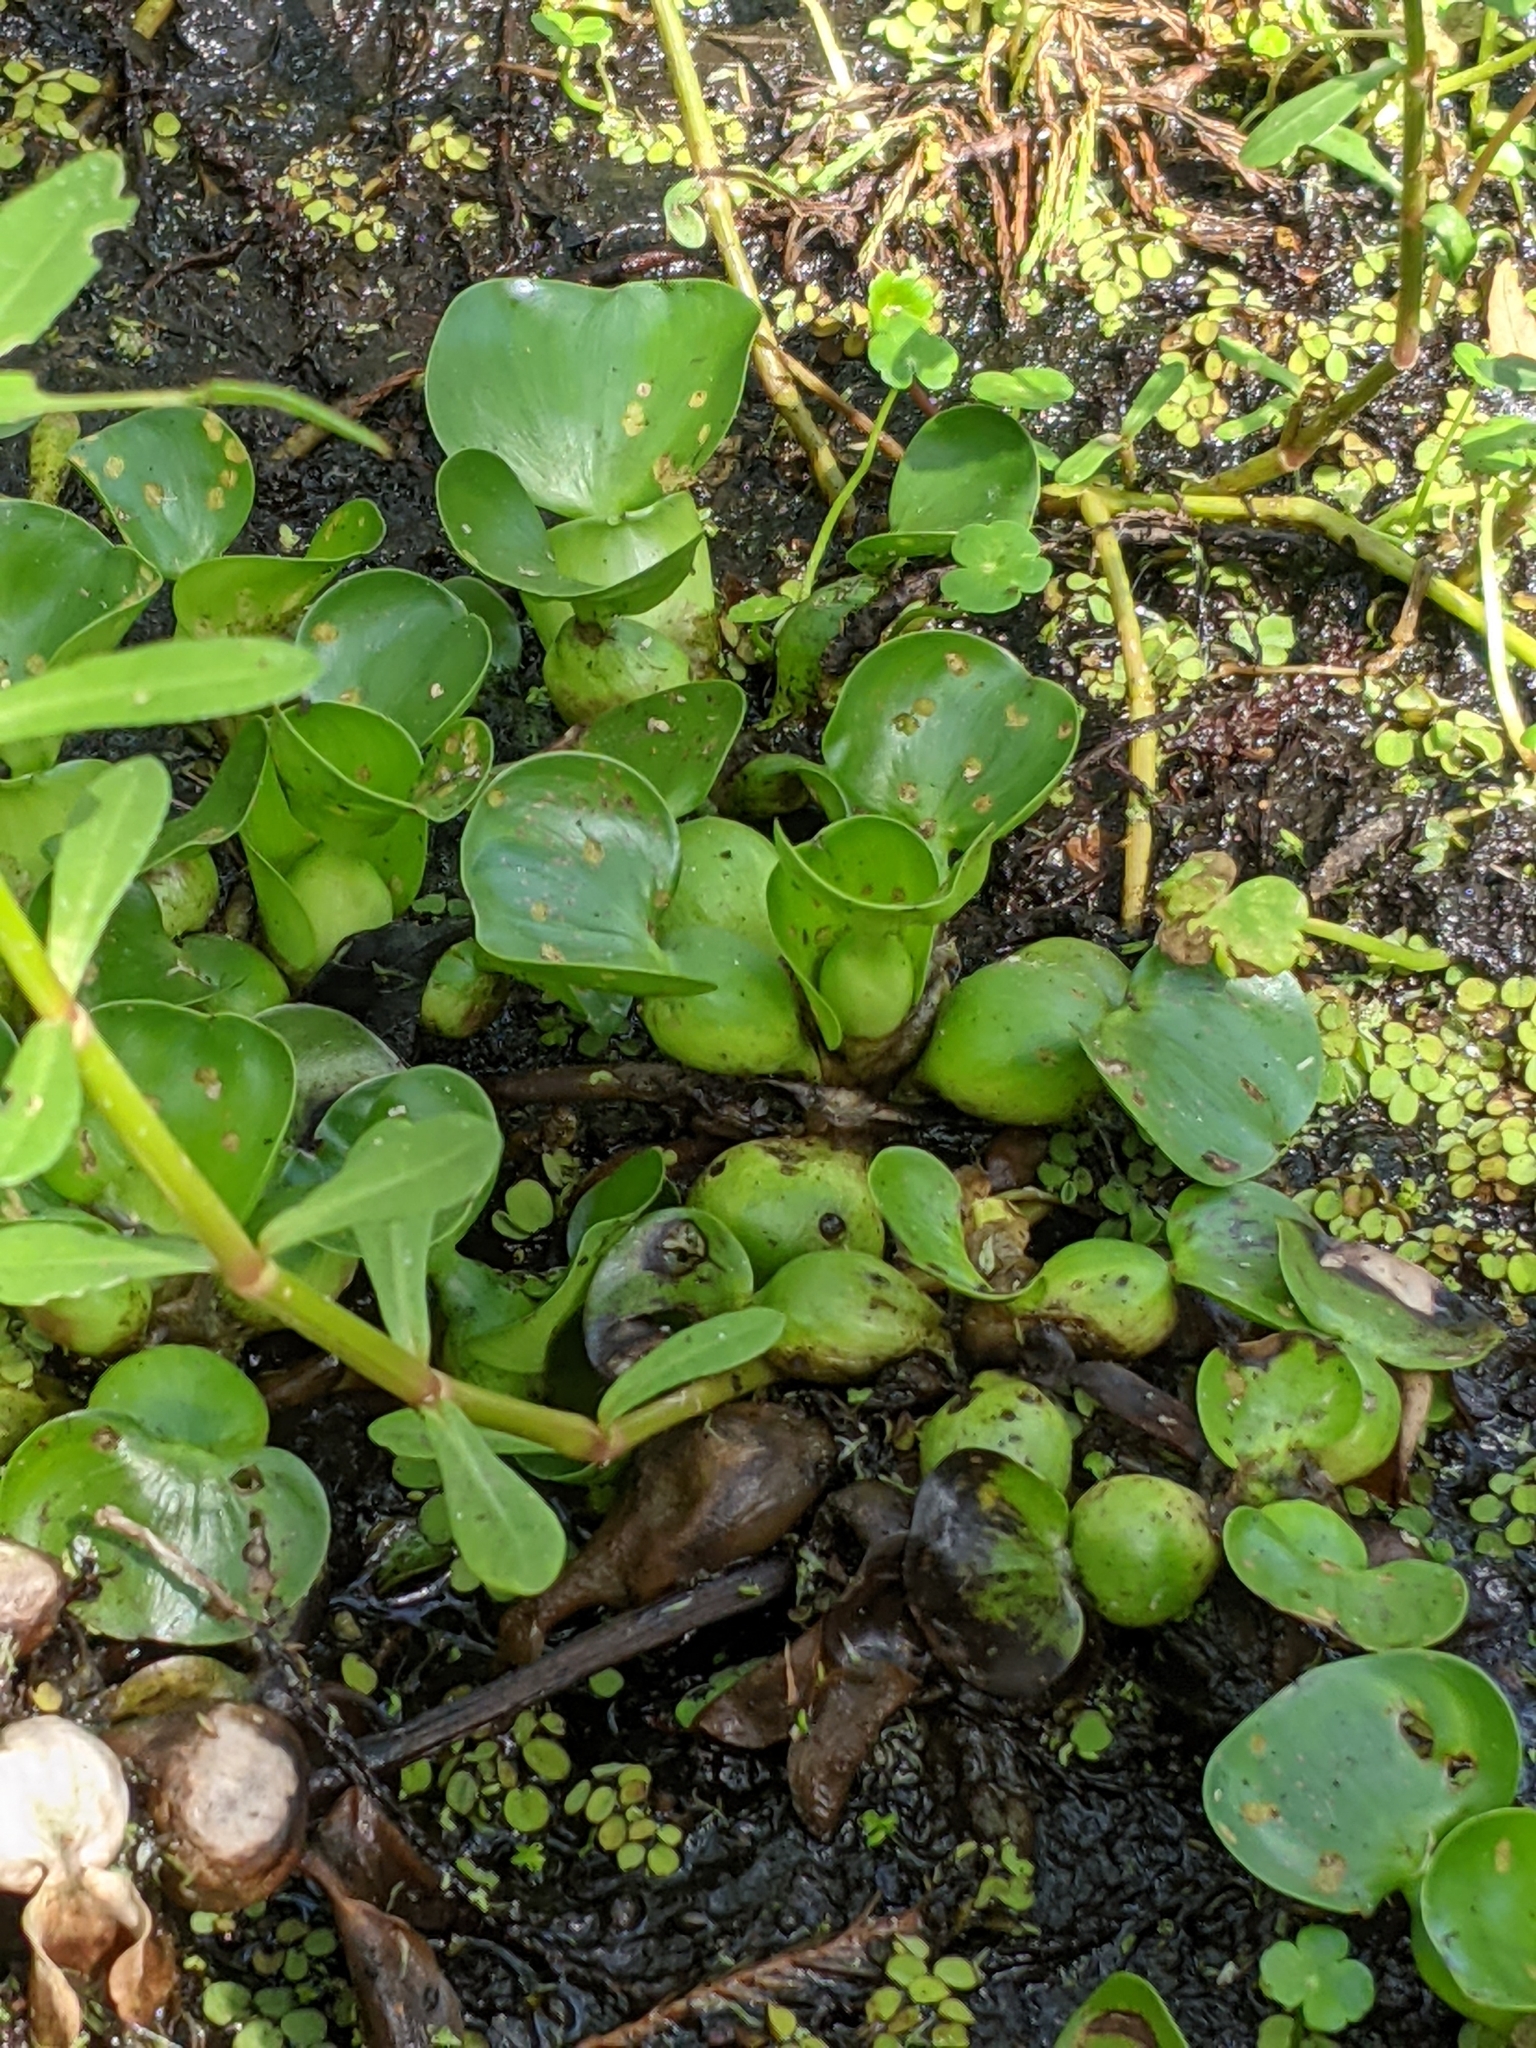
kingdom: Plantae
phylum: Tracheophyta
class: Liliopsida
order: Commelinales
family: Pontederiaceae
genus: Pontederia
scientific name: Pontederia crassipes
